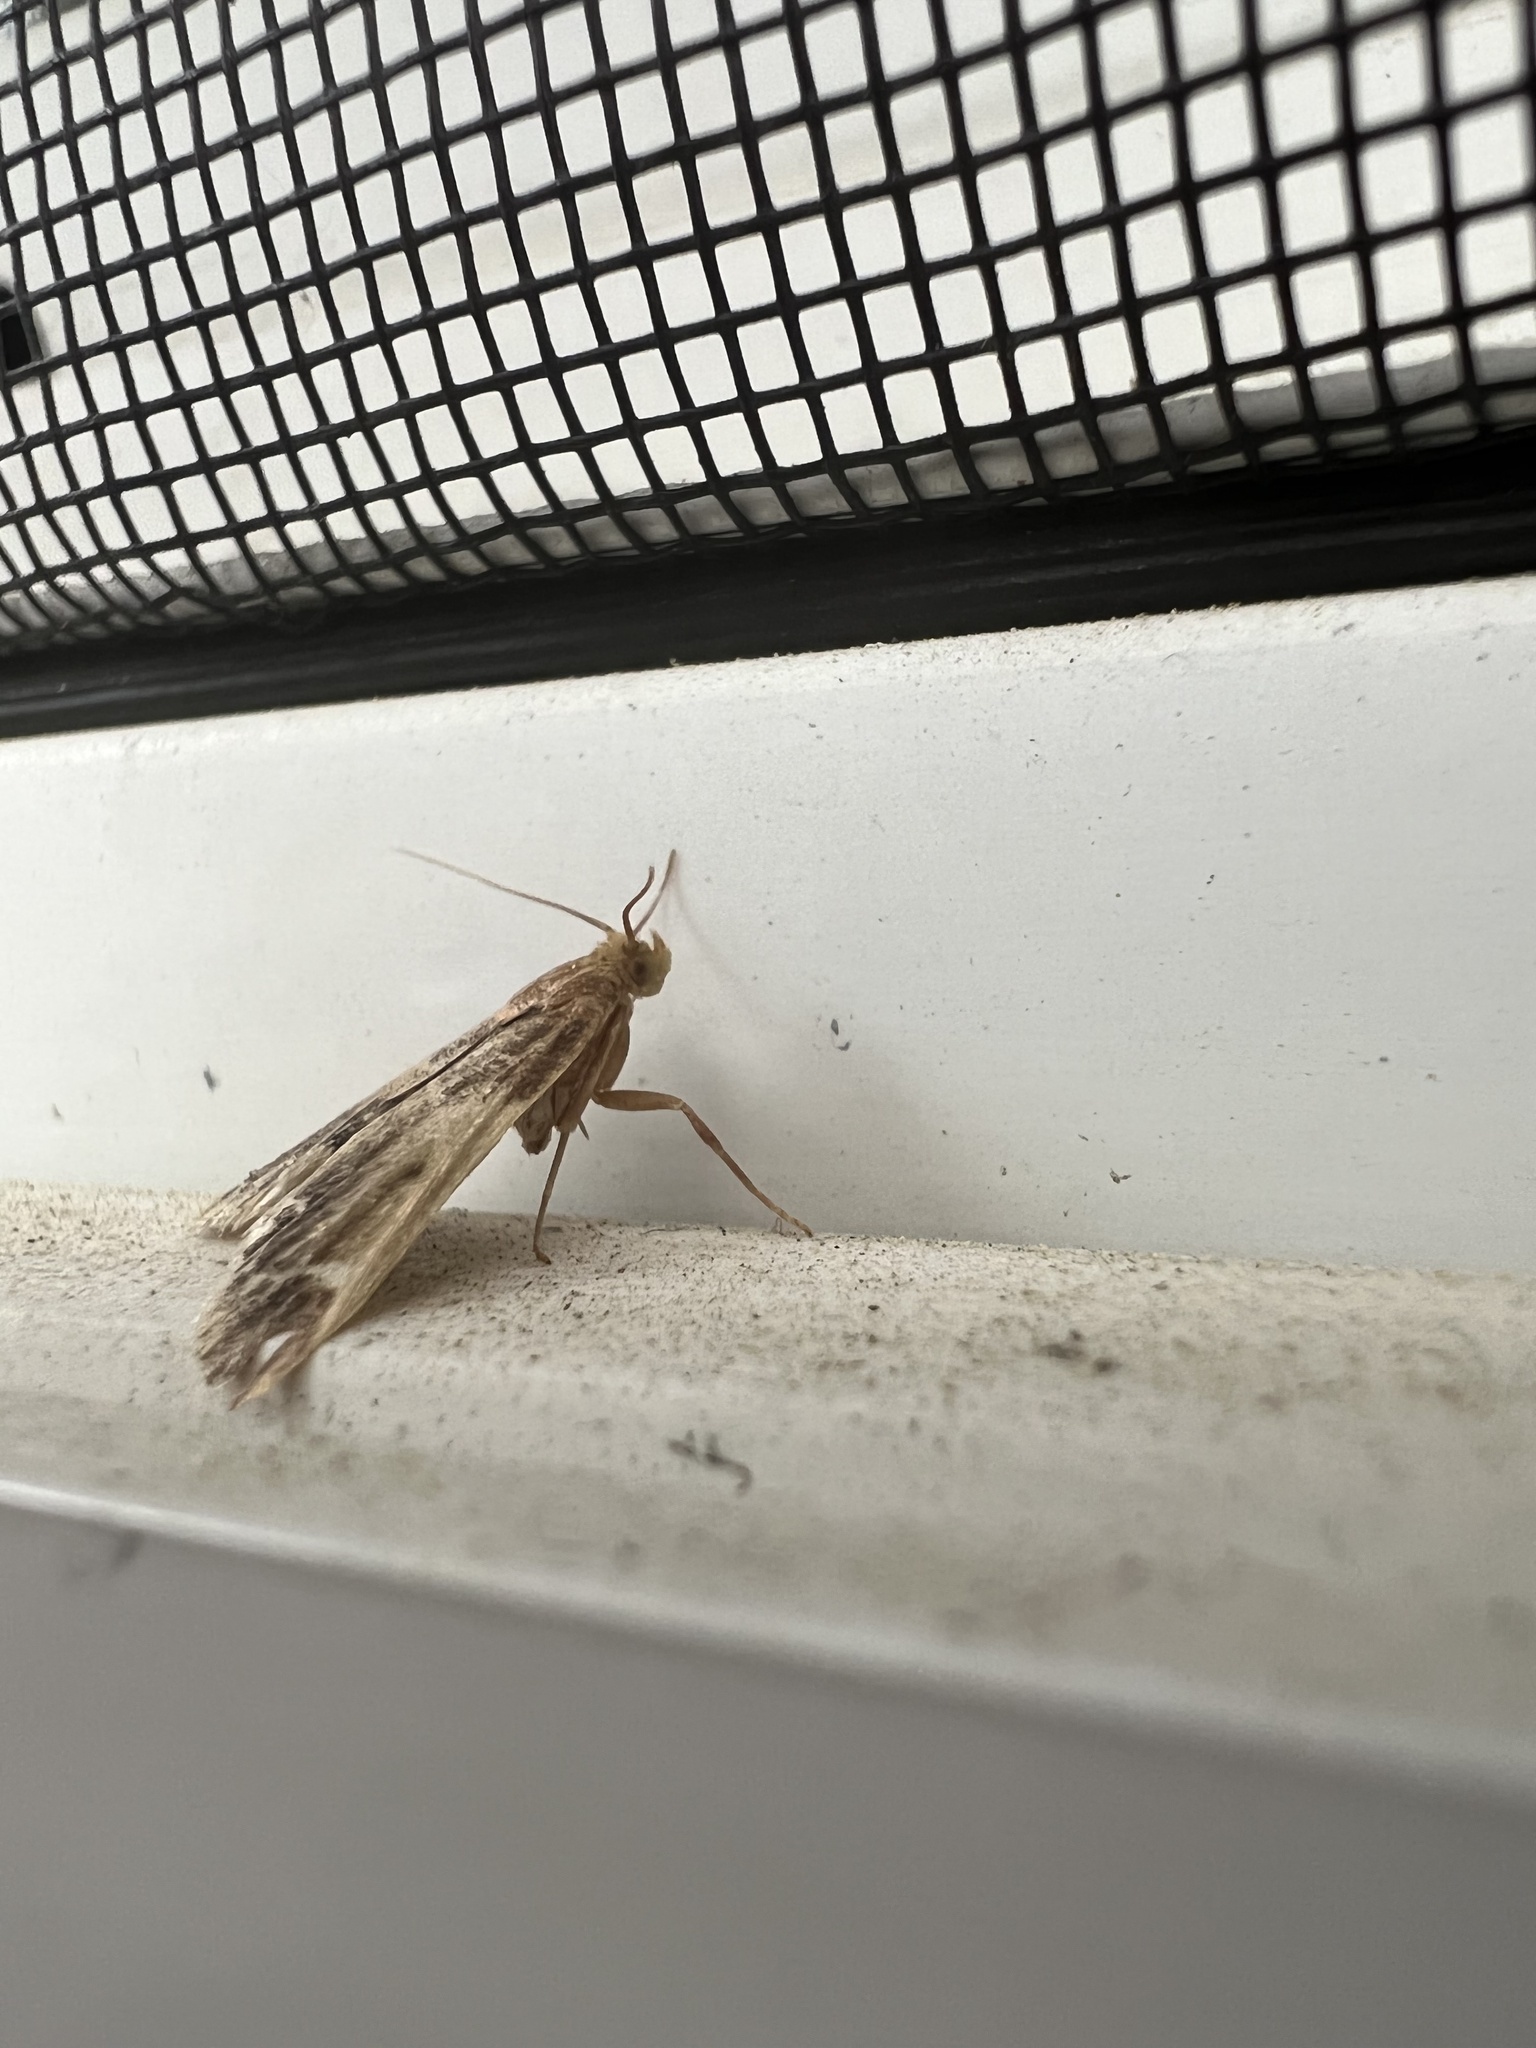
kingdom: Animalia
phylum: Arthropoda
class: Insecta
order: Lepidoptera
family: Pyralidae
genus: Pyralis
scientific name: Pyralis farinalis
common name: Meal moth
